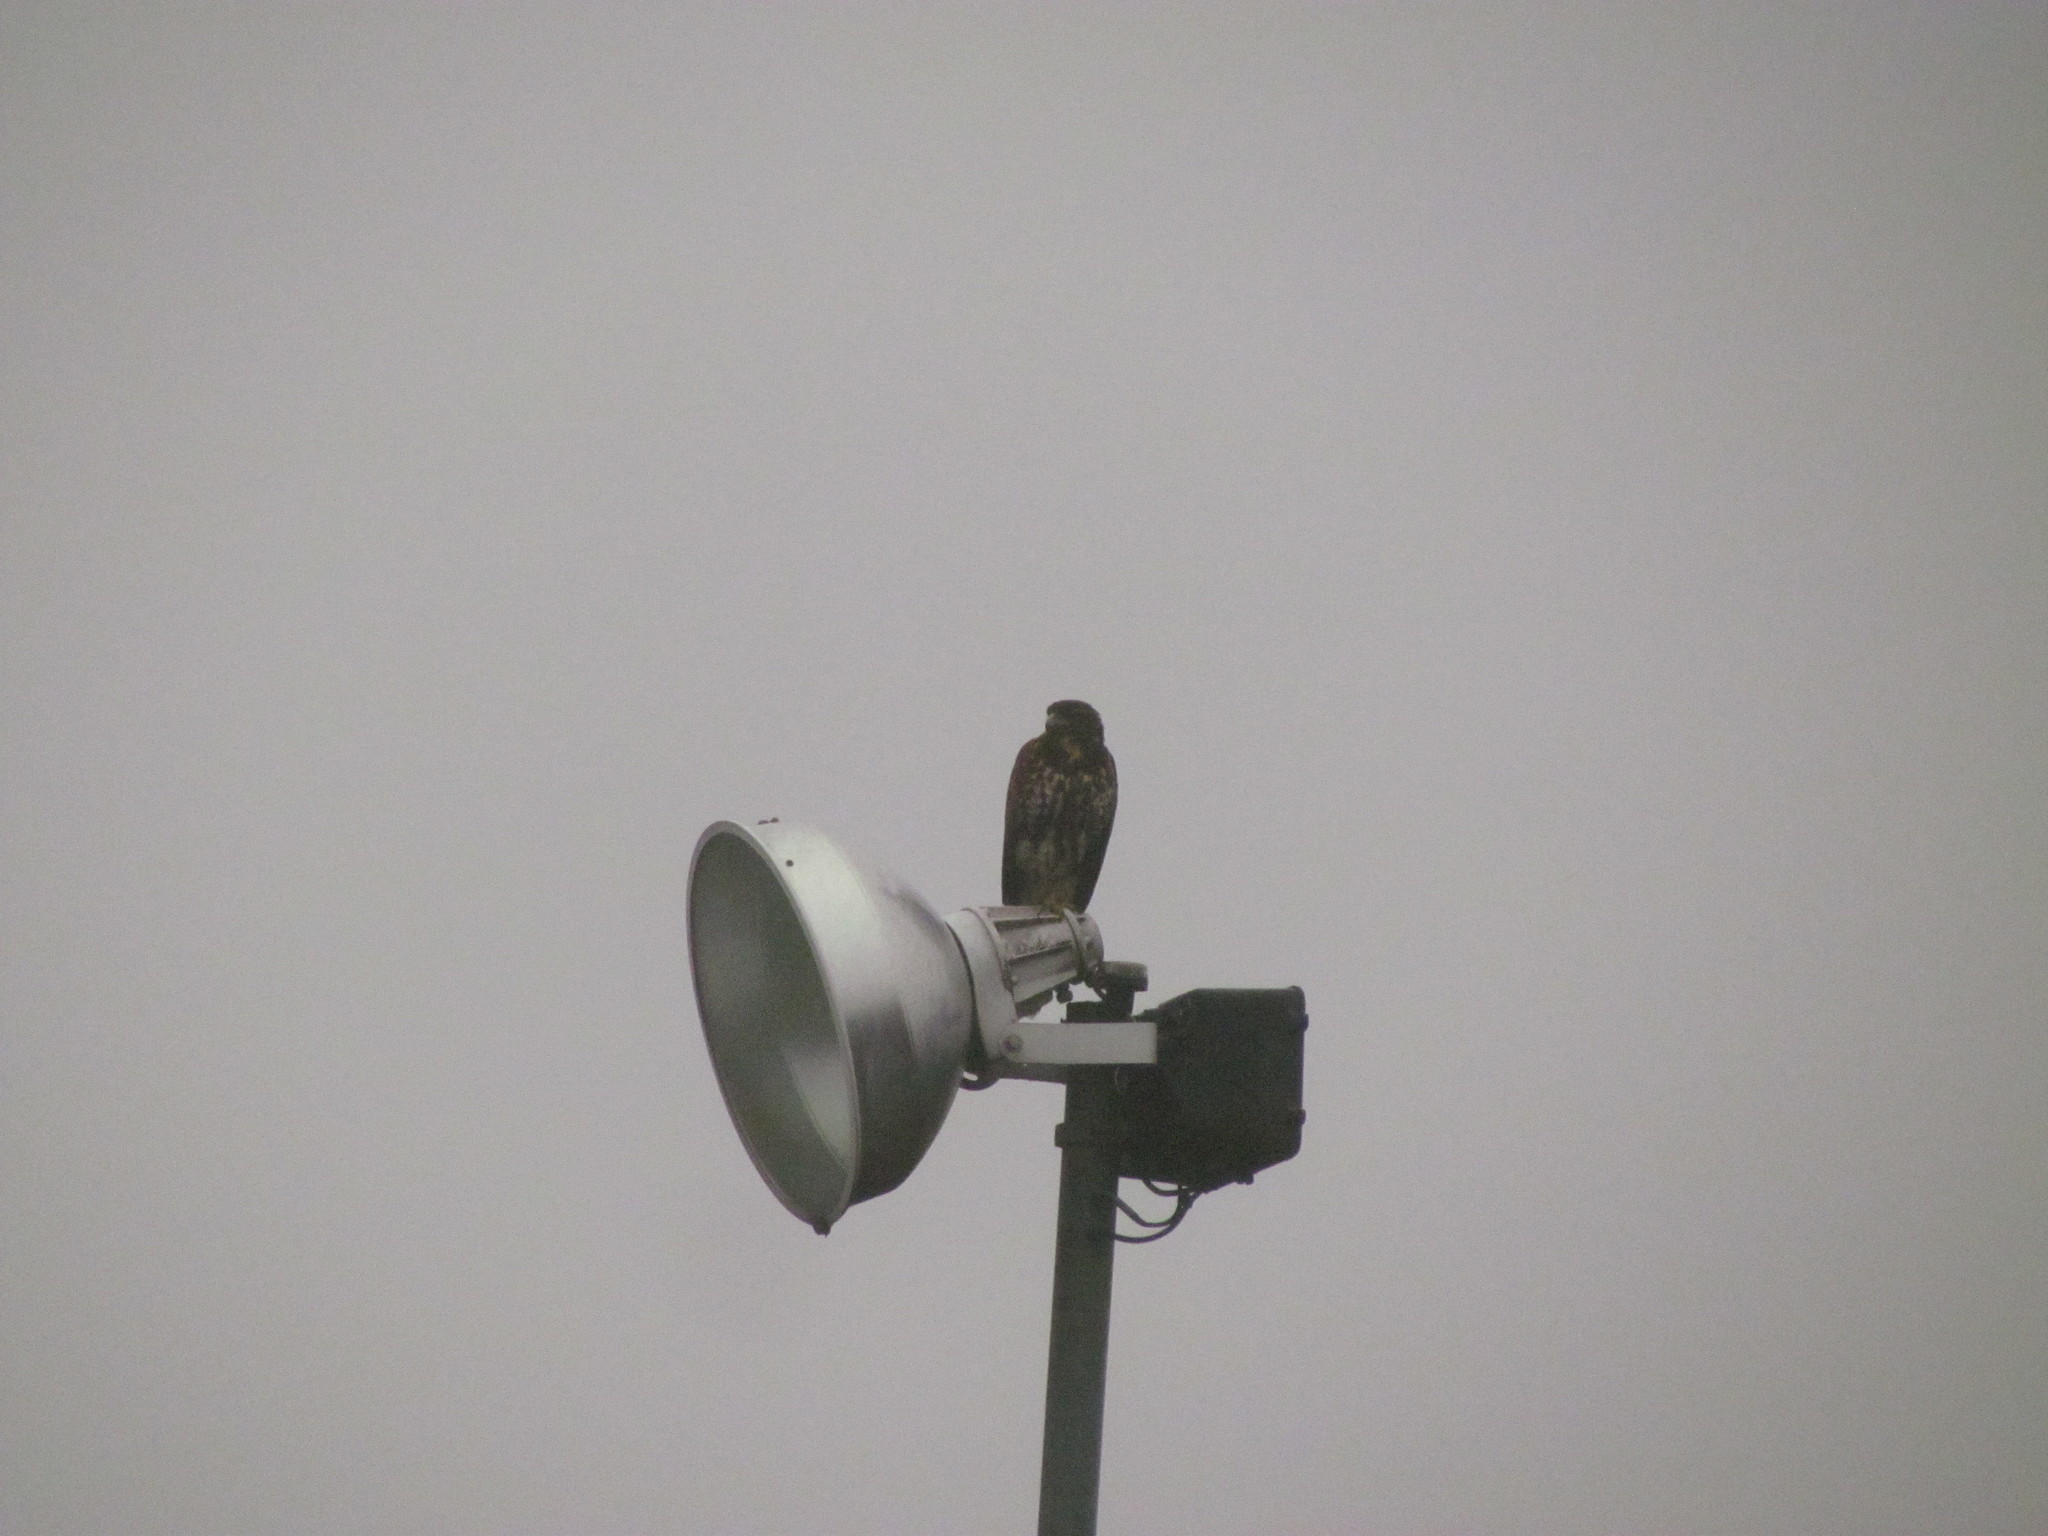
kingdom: Animalia
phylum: Chordata
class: Aves
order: Accipitriformes
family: Accipitridae
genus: Parabuteo
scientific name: Parabuteo unicinctus
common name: Harris's hawk
